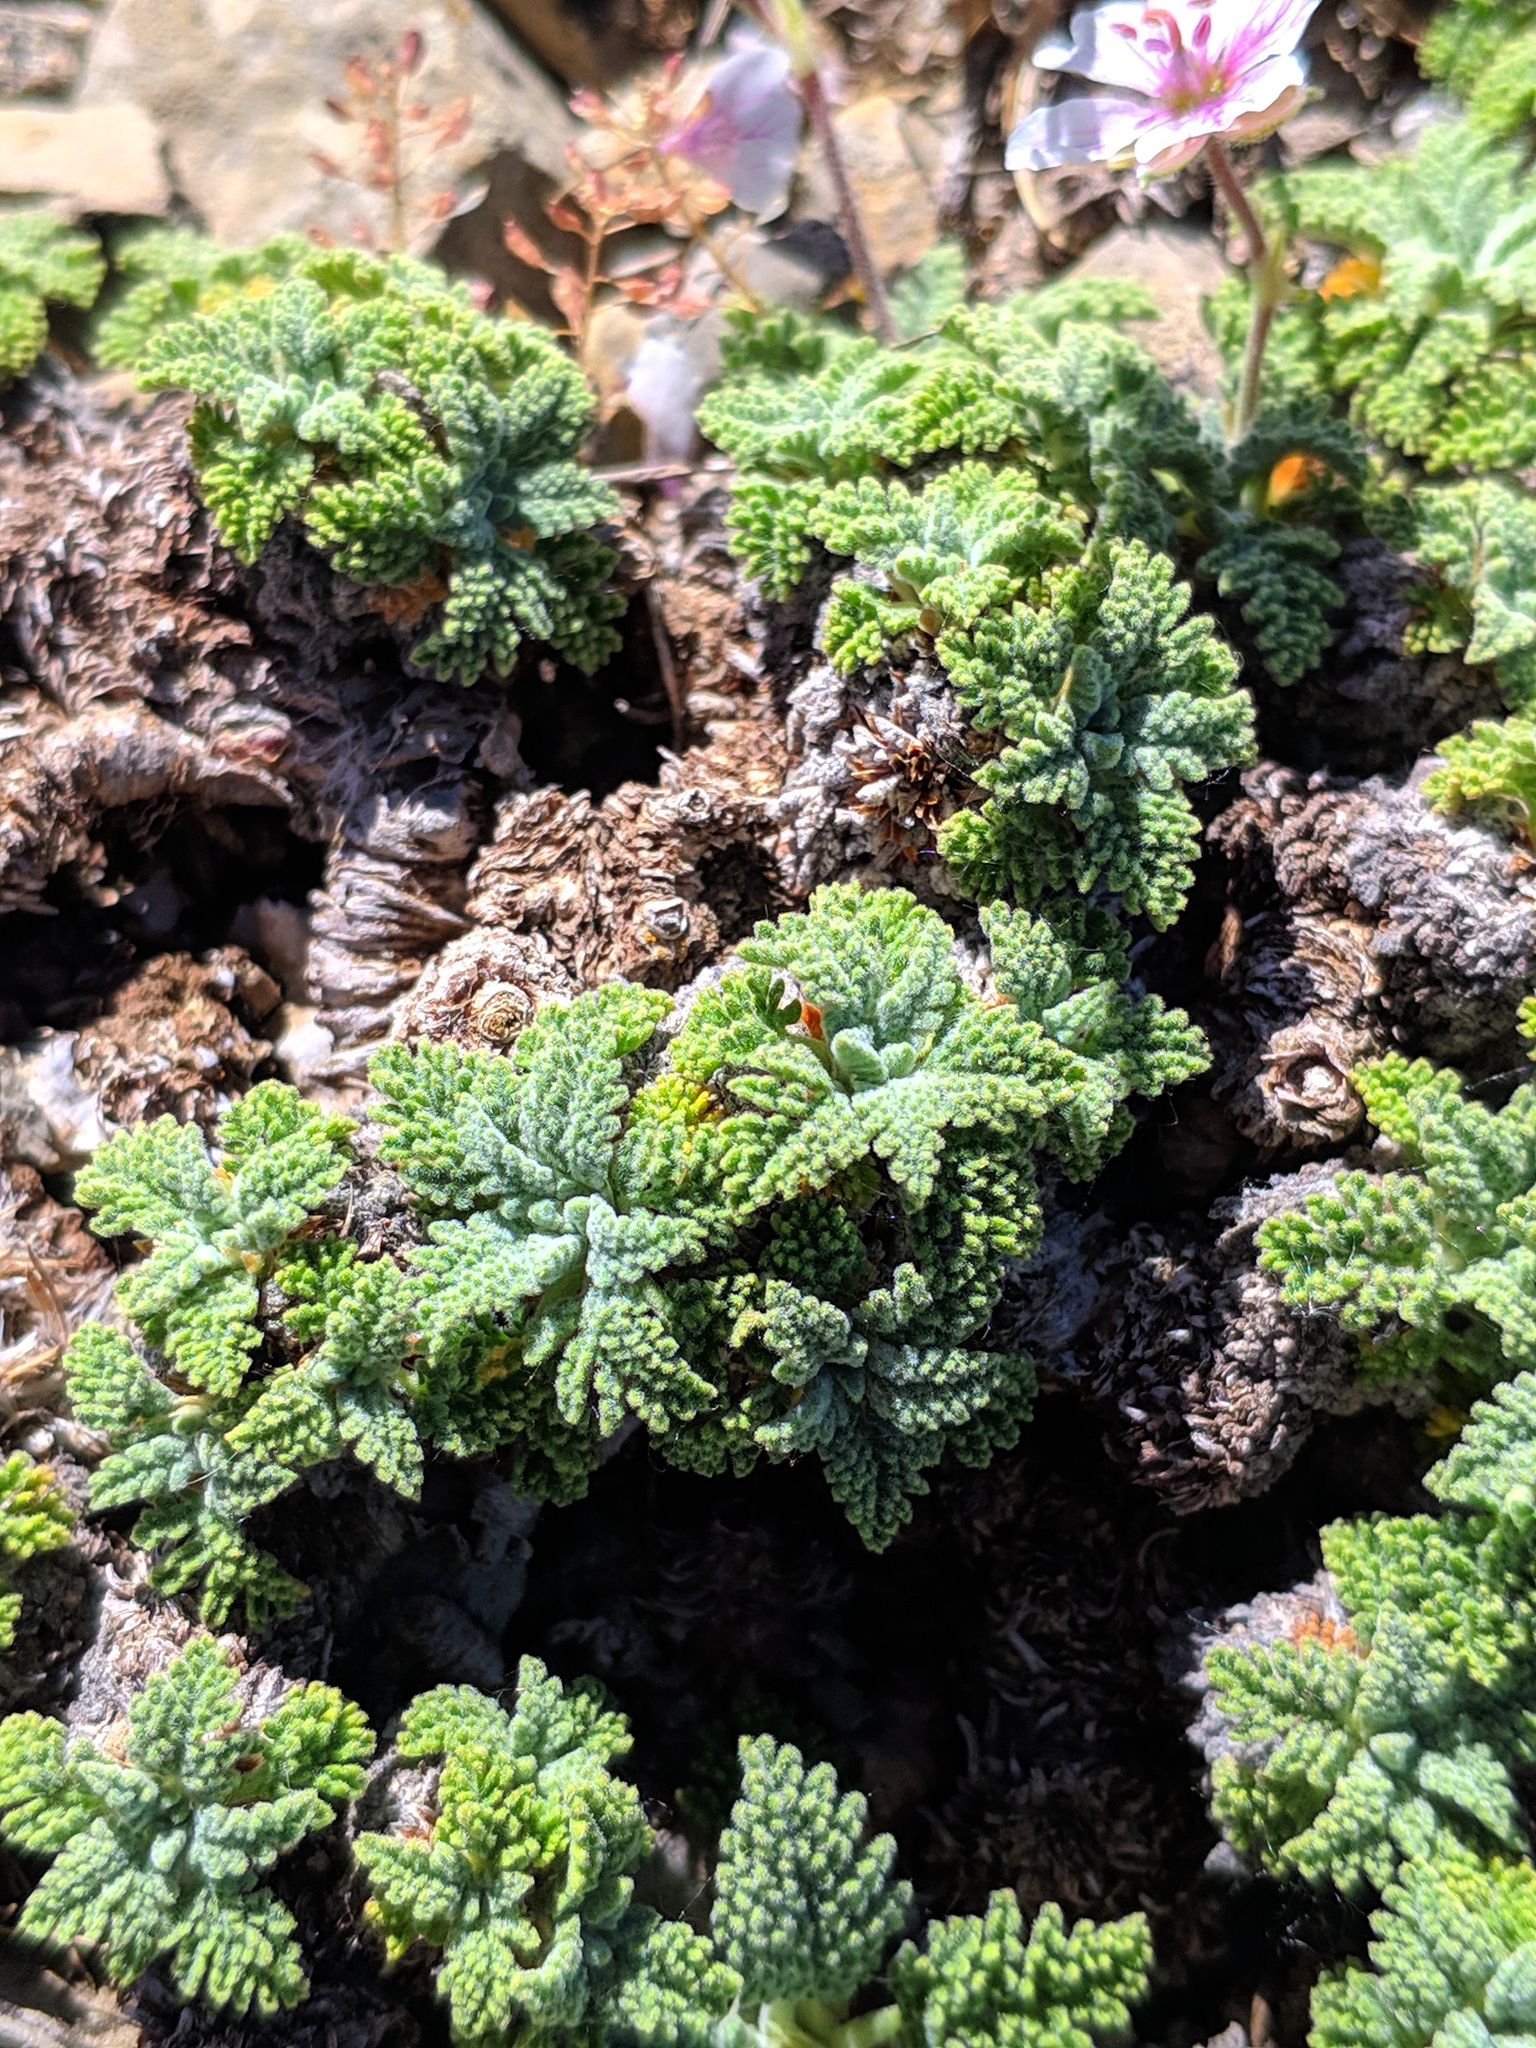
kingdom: Plantae
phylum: Tracheophyta
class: Magnoliopsida
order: Geraniales
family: Geraniaceae
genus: Erodium
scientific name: Erodium celtibericum
